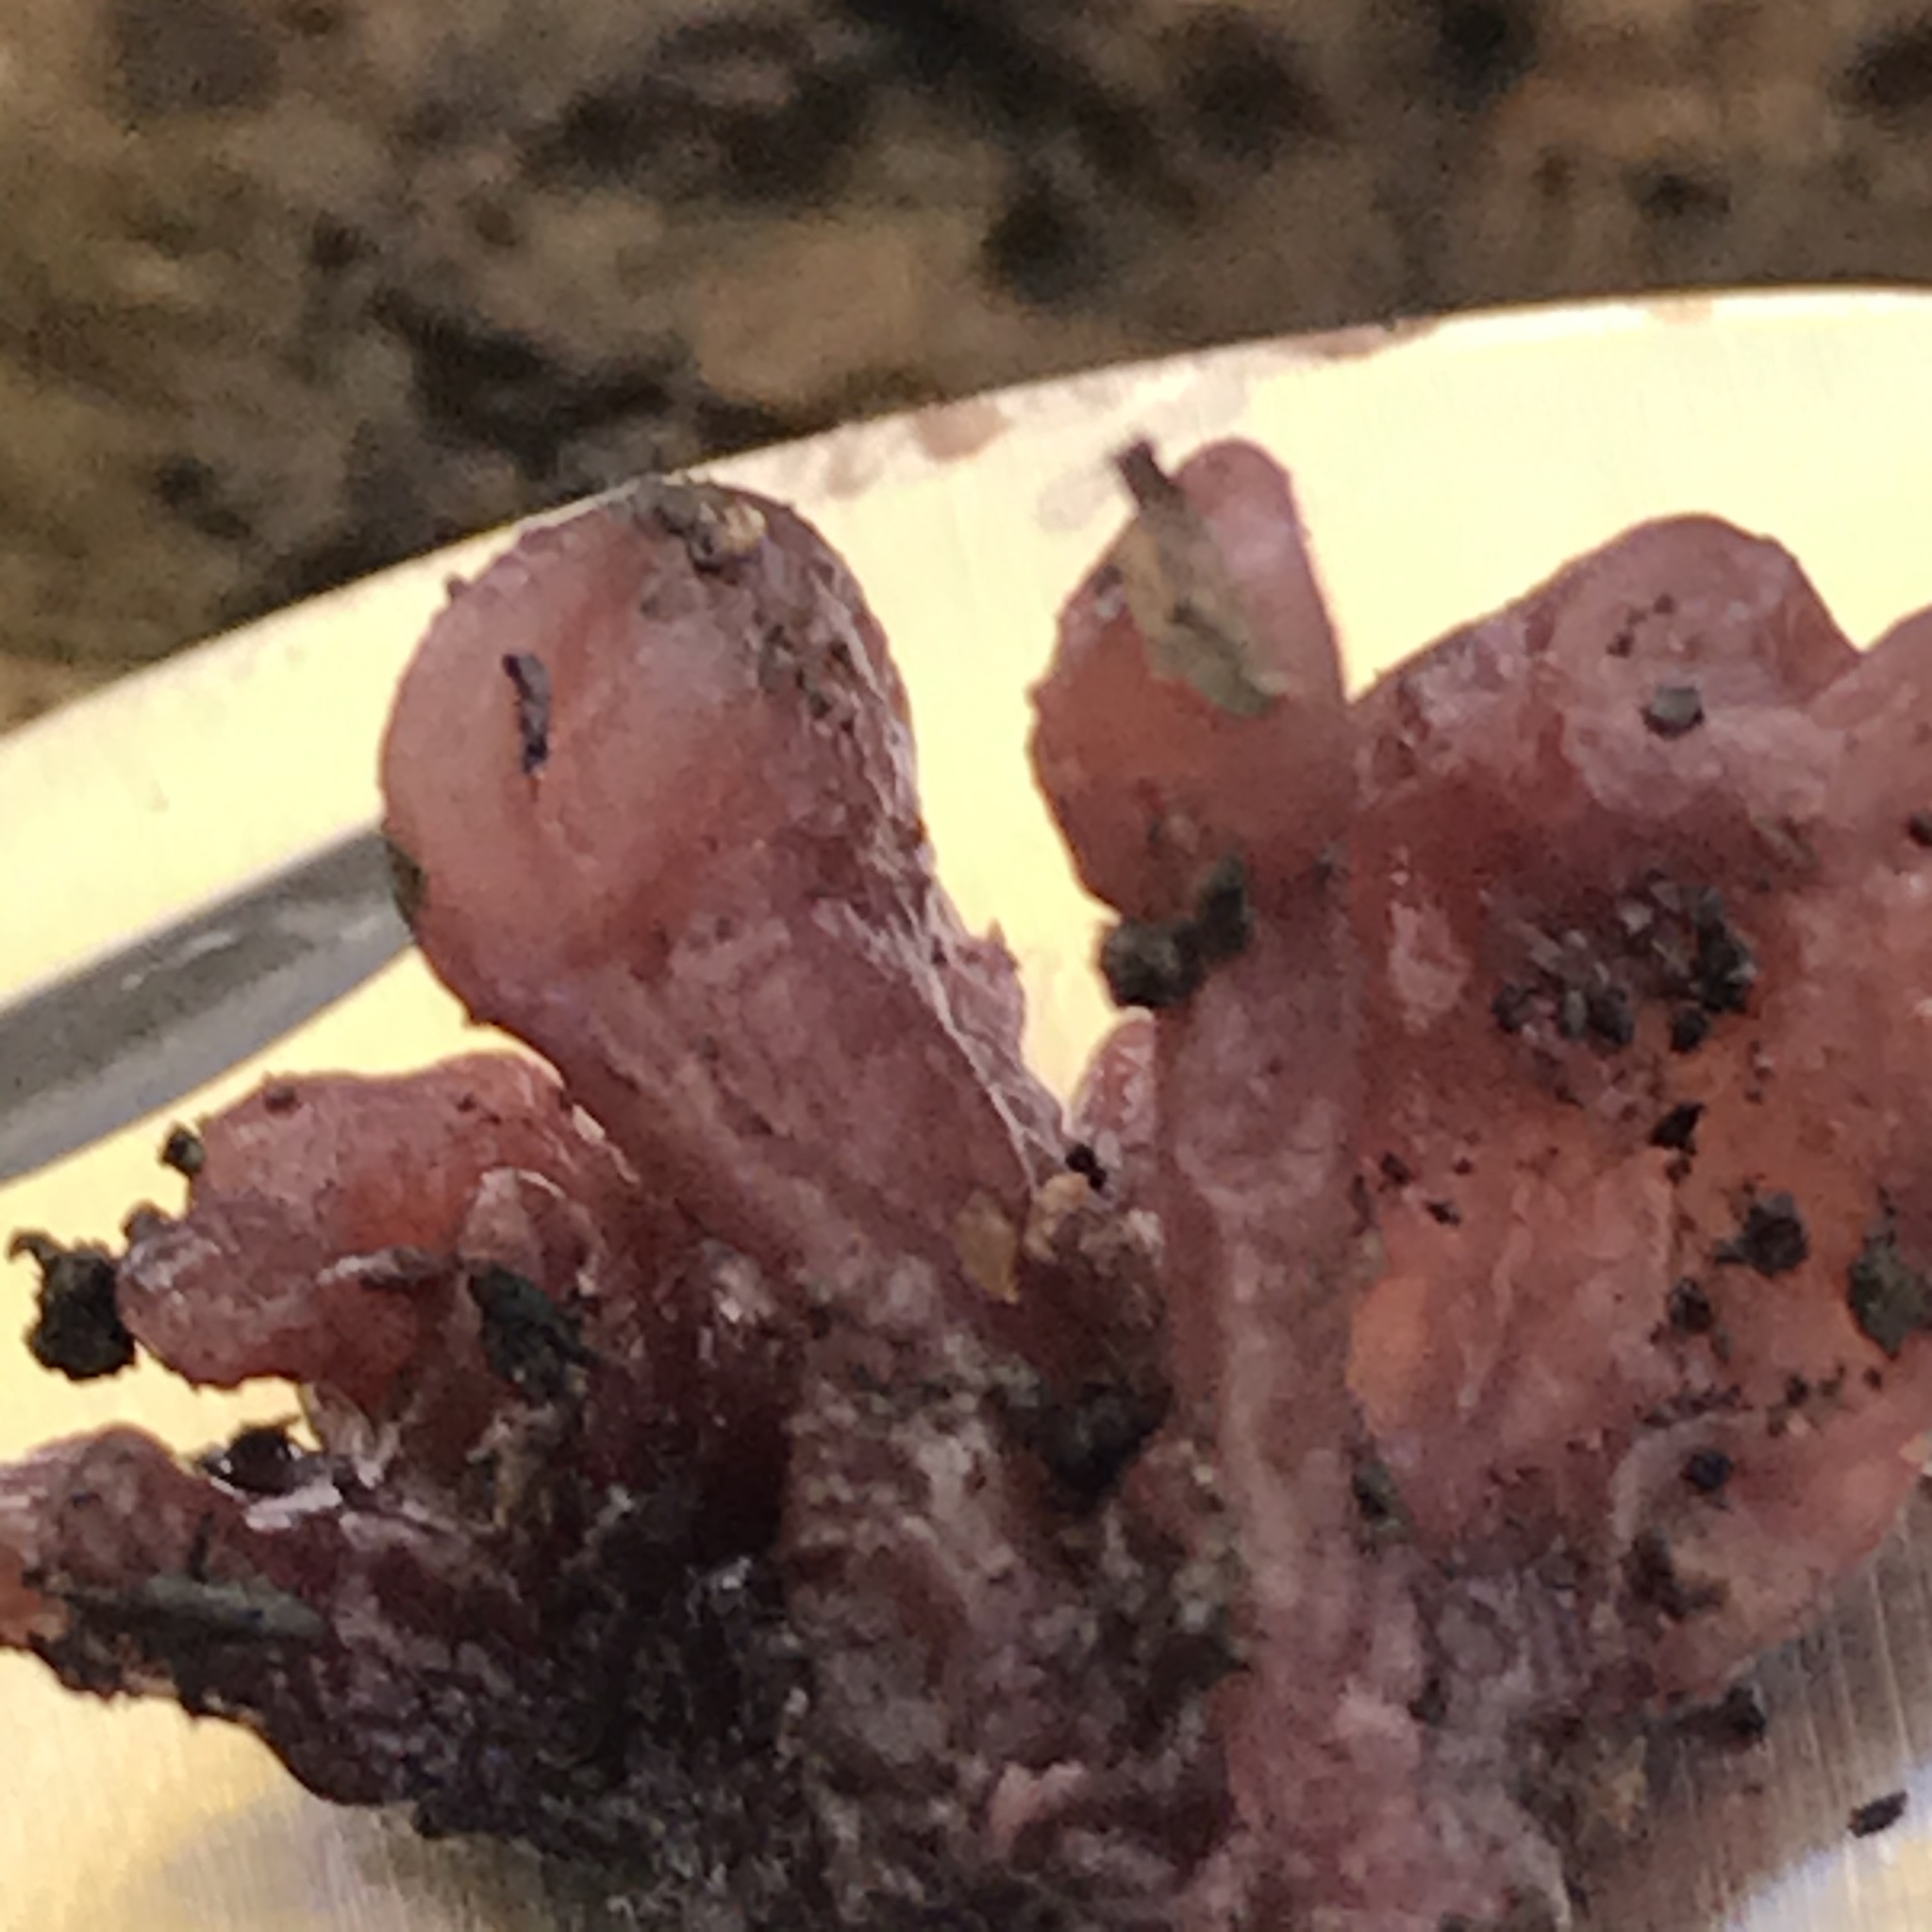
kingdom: Fungi
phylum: Ascomycota
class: Leotiomycetes
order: Helotiales
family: Gelatinodiscaceae
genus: Ascocoryne
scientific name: Ascocoryne sarcoides
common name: Purple jellydisc
